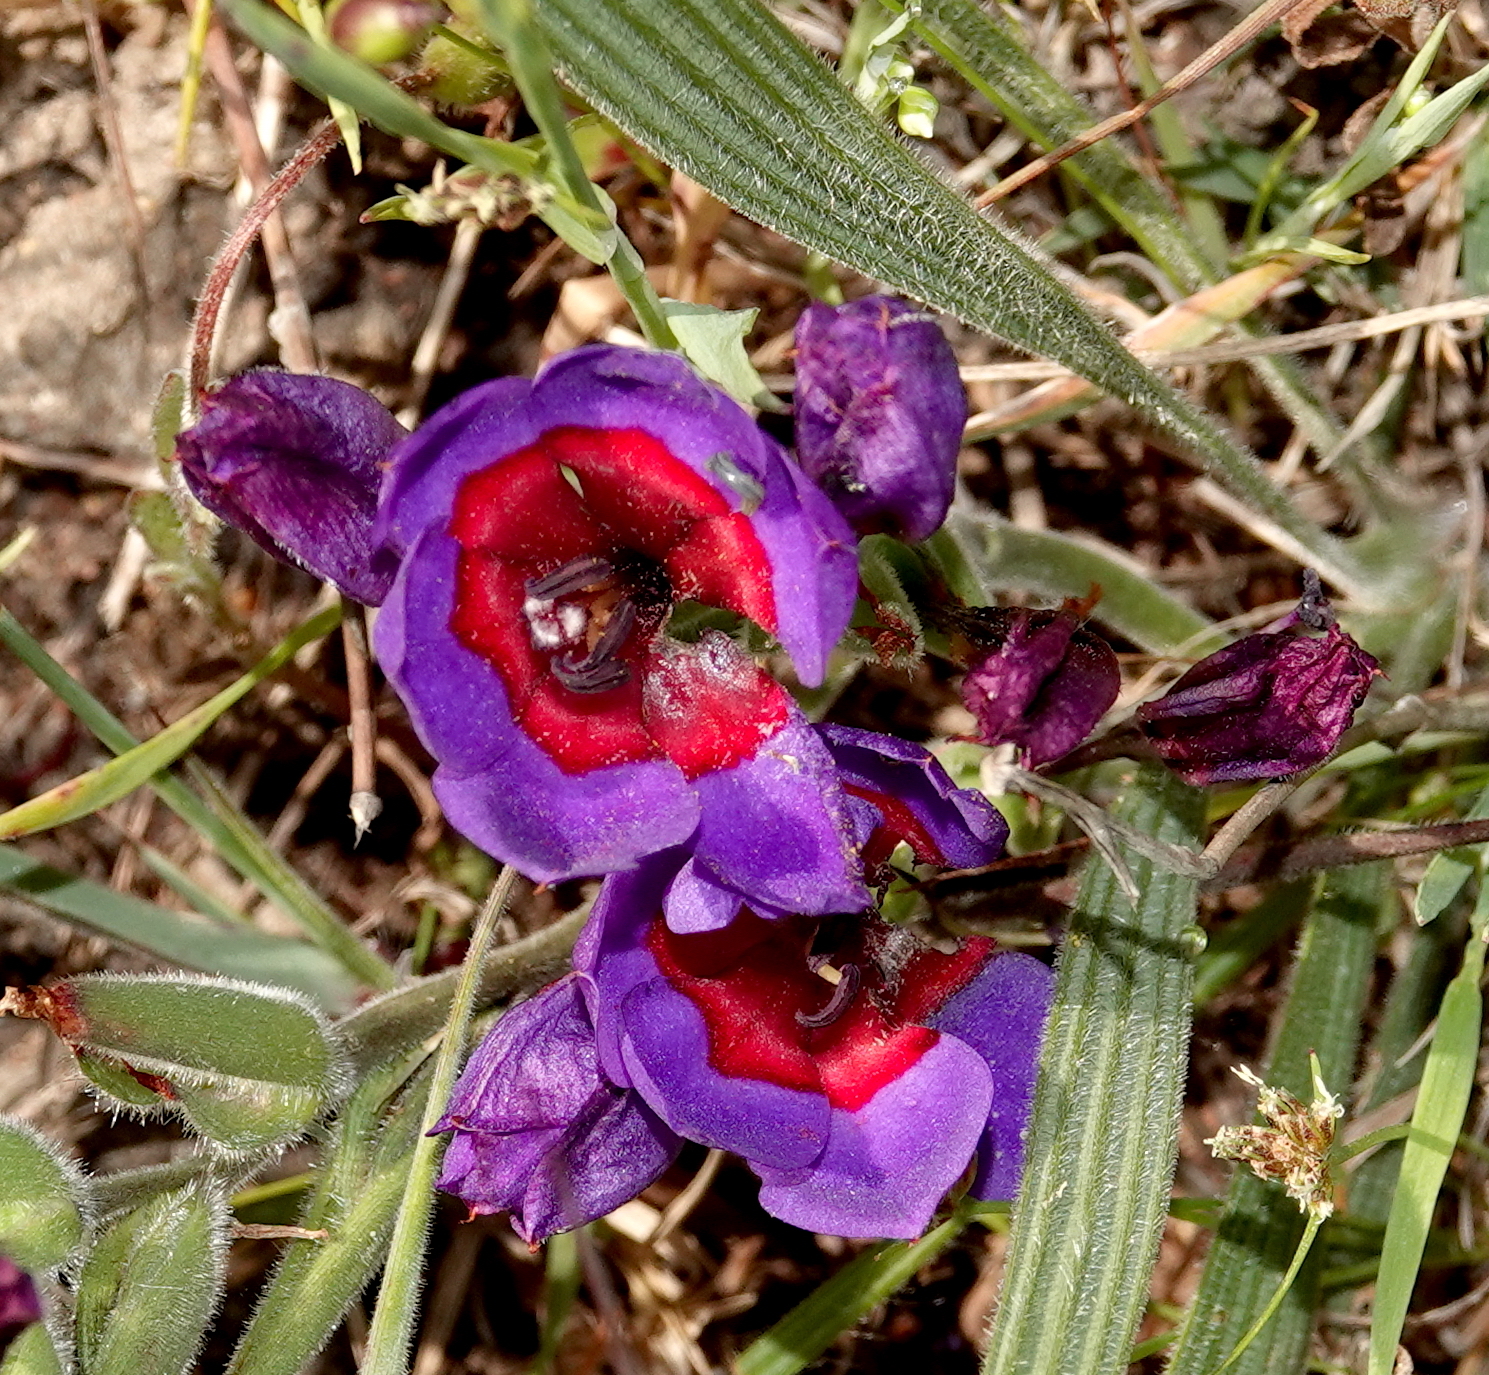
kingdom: Plantae
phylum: Tracheophyta
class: Liliopsida
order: Asparagales
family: Iridaceae
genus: Babiana
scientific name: Babiana rubrocyanea
